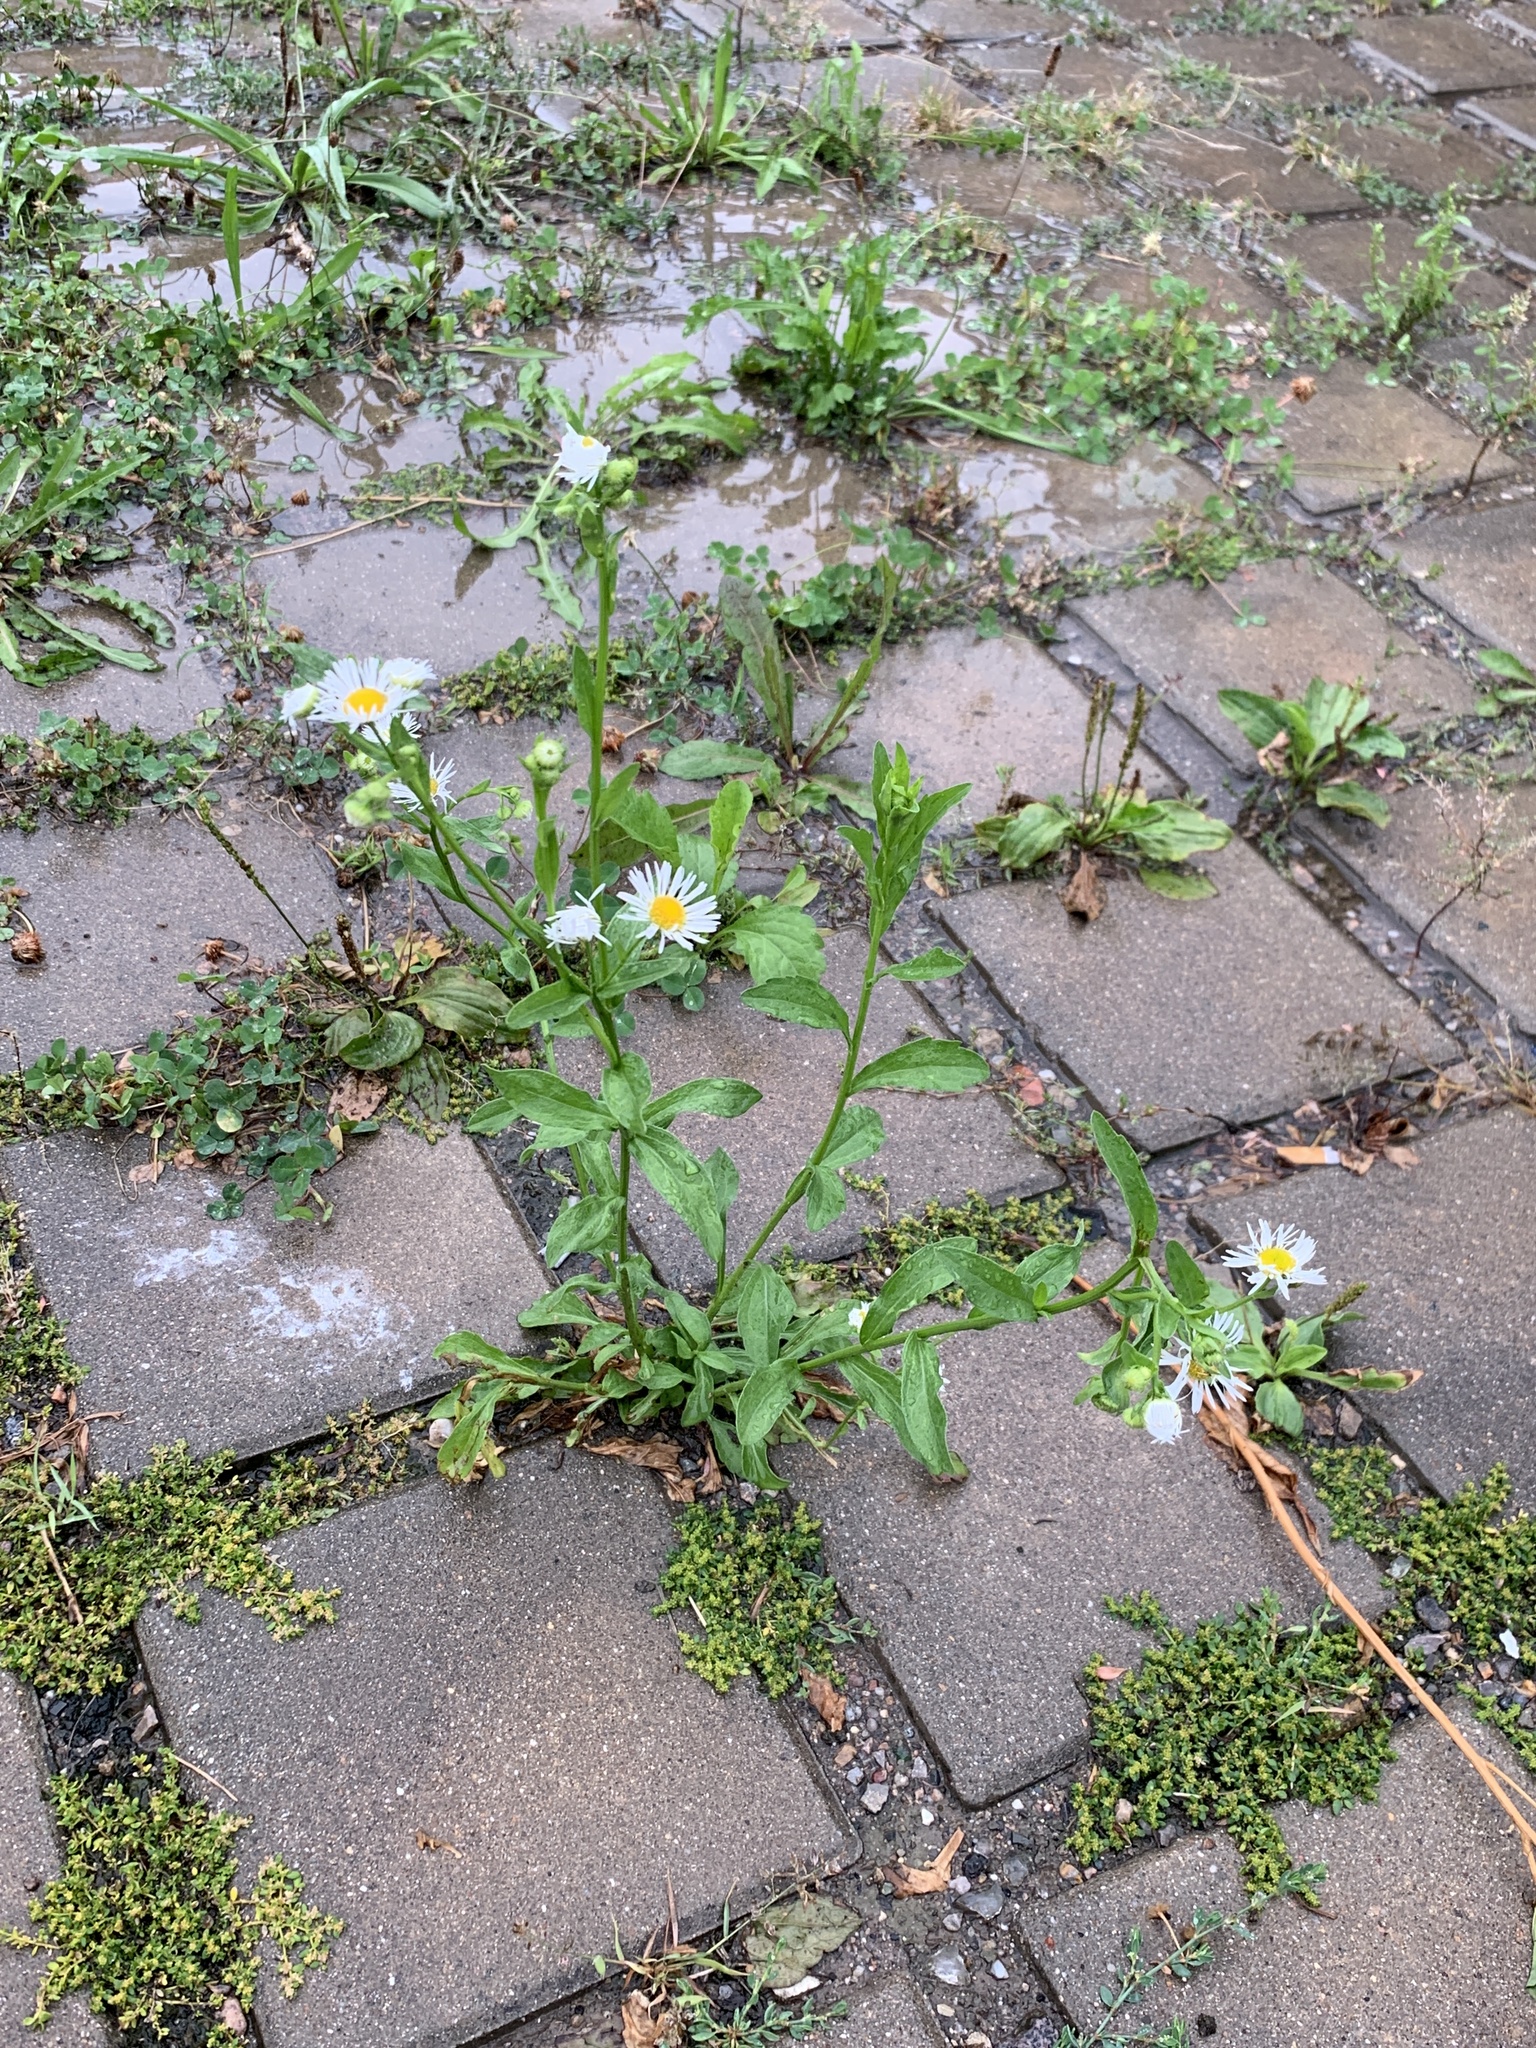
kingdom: Plantae
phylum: Tracheophyta
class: Magnoliopsida
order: Asterales
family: Asteraceae
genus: Erigeron
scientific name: Erigeron annuus
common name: Tall fleabane
